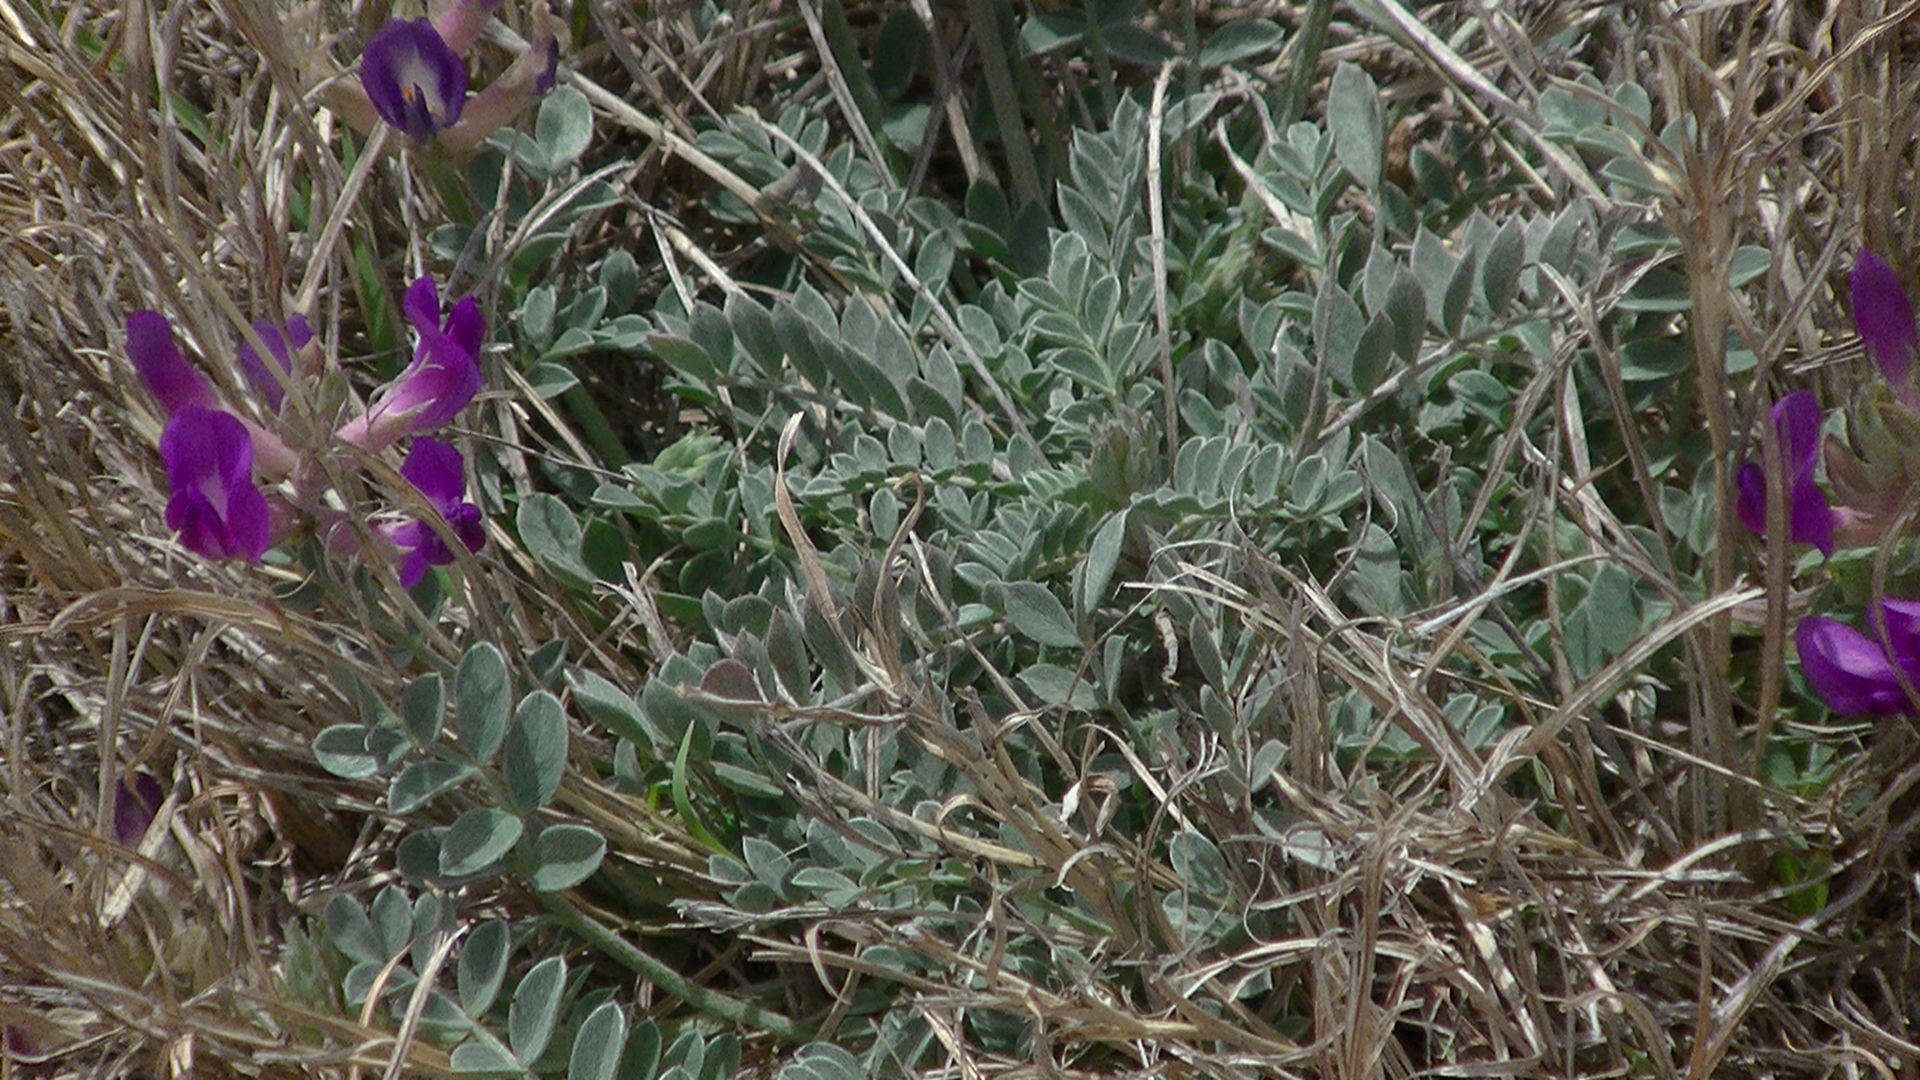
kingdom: Plantae
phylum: Tracheophyta
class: Magnoliopsida
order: Fabales
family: Fabaceae
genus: Astragalus
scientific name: Astragalus missouriensis
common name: Missouri milk-vetch
